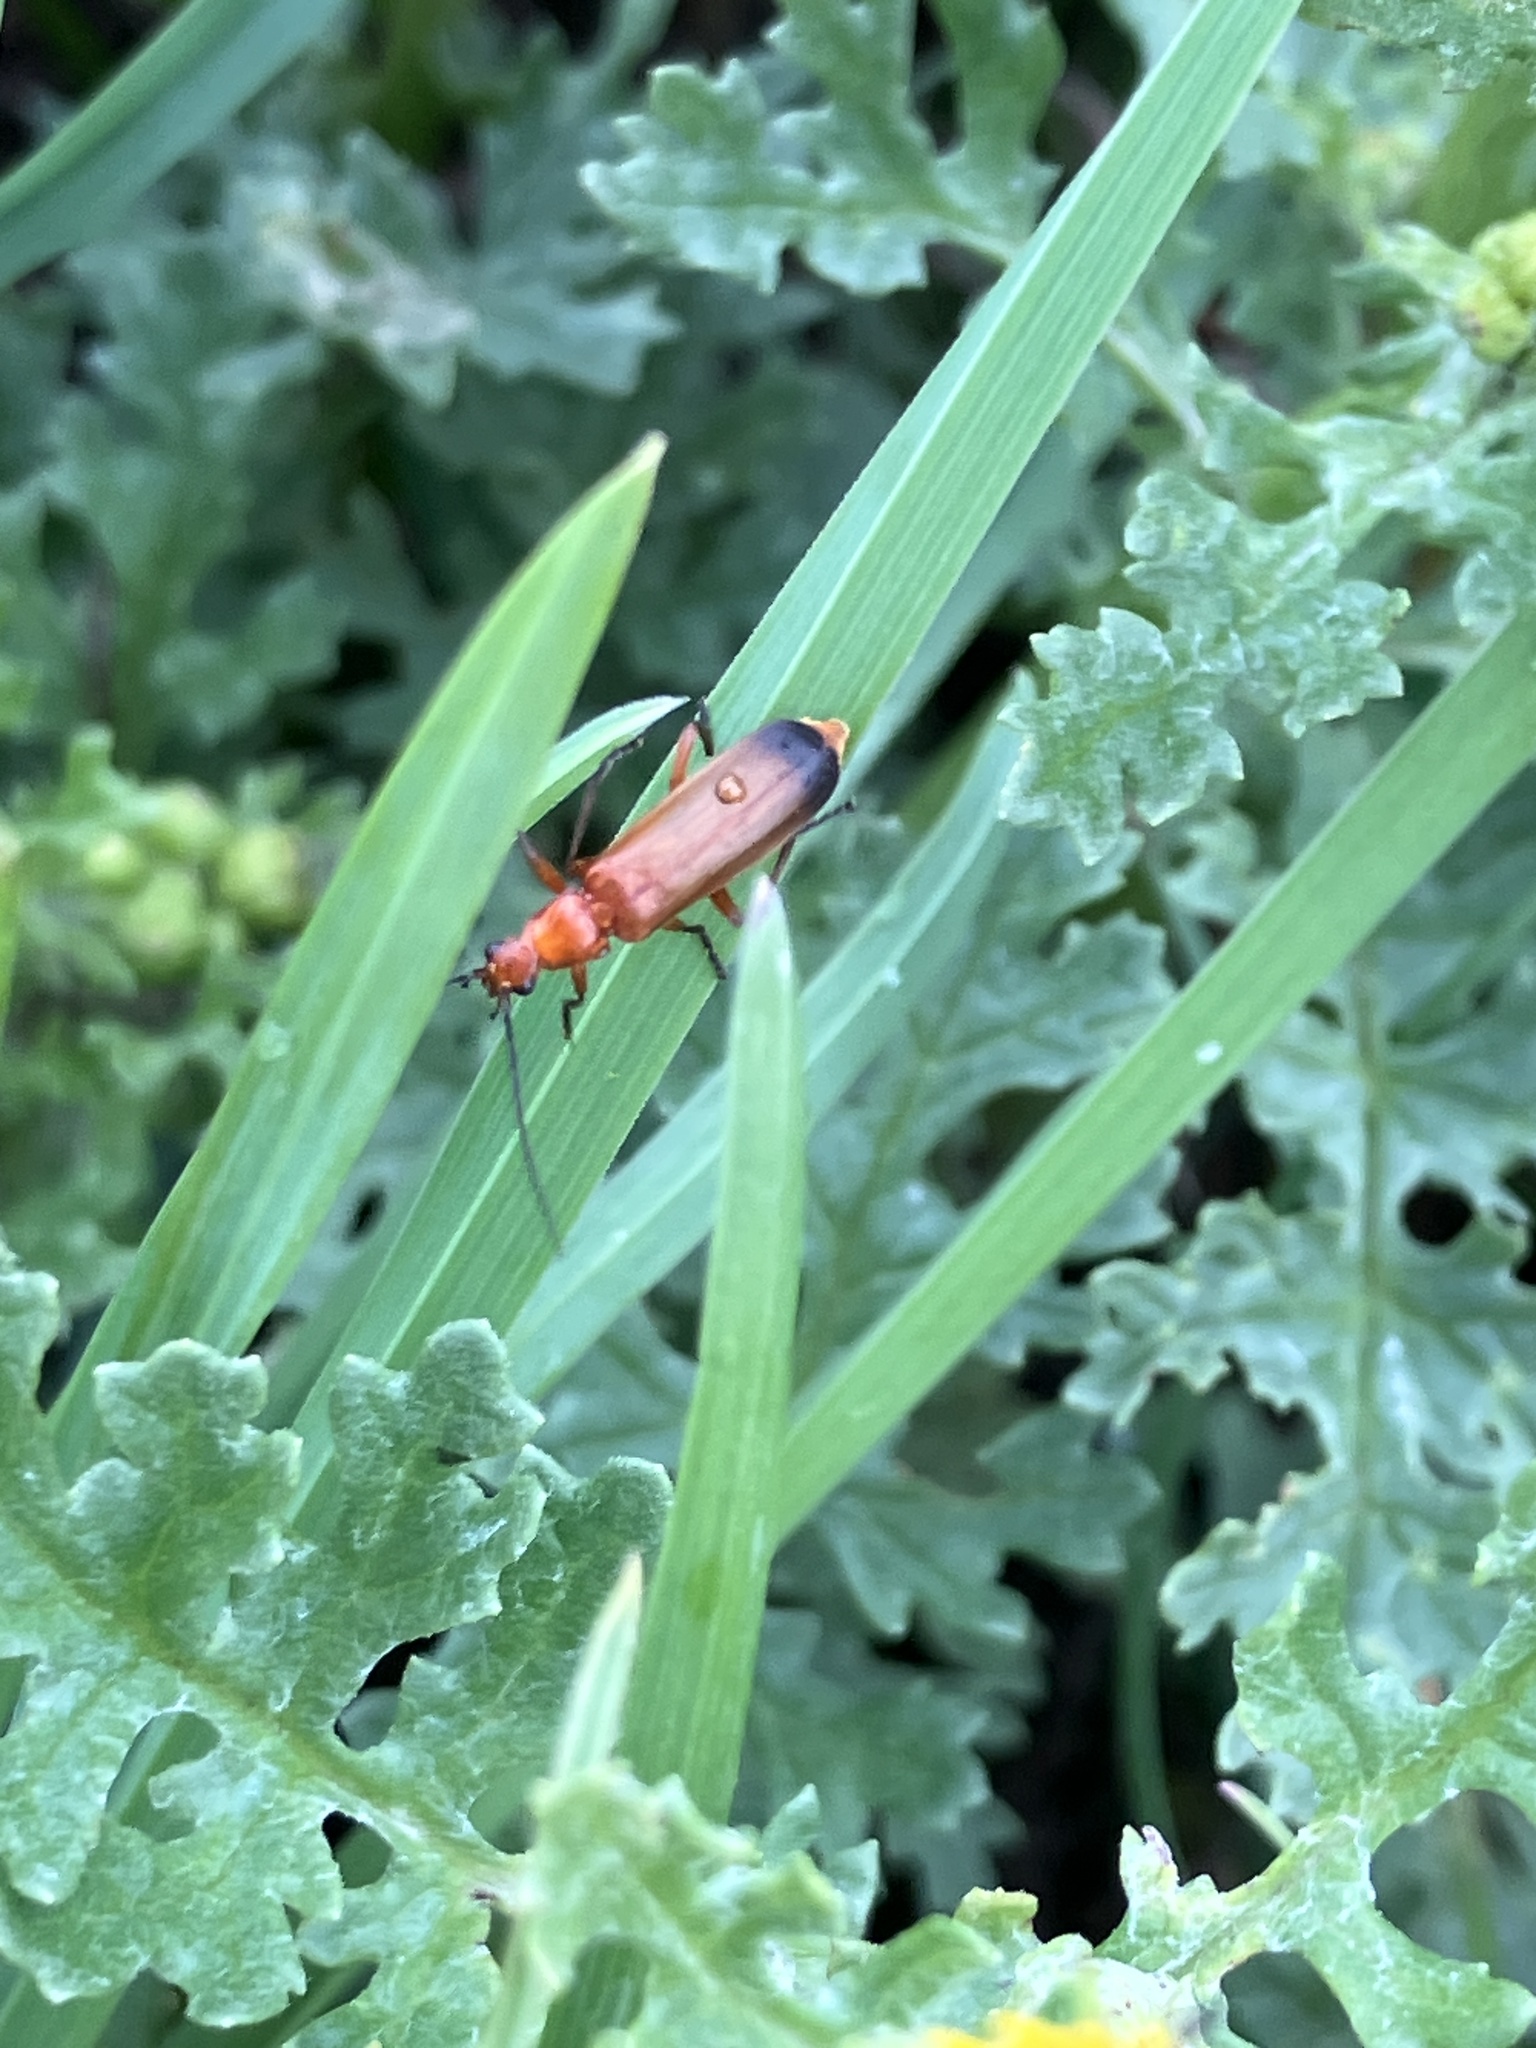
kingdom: Animalia
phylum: Arthropoda
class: Insecta
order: Coleoptera
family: Cantharidae
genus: Rhagonycha
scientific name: Rhagonycha fulva
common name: Common red soldier beetle
